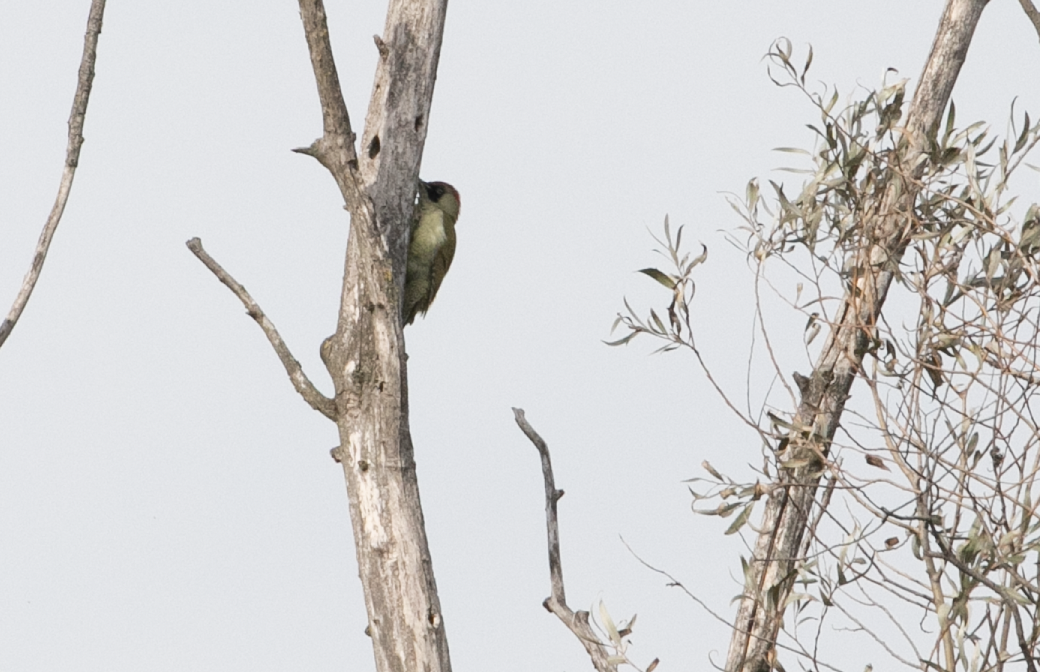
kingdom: Animalia
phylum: Chordata
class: Aves
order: Piciformes
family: Picidae
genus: Picus
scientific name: Picus viridis
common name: European green woodpecker
